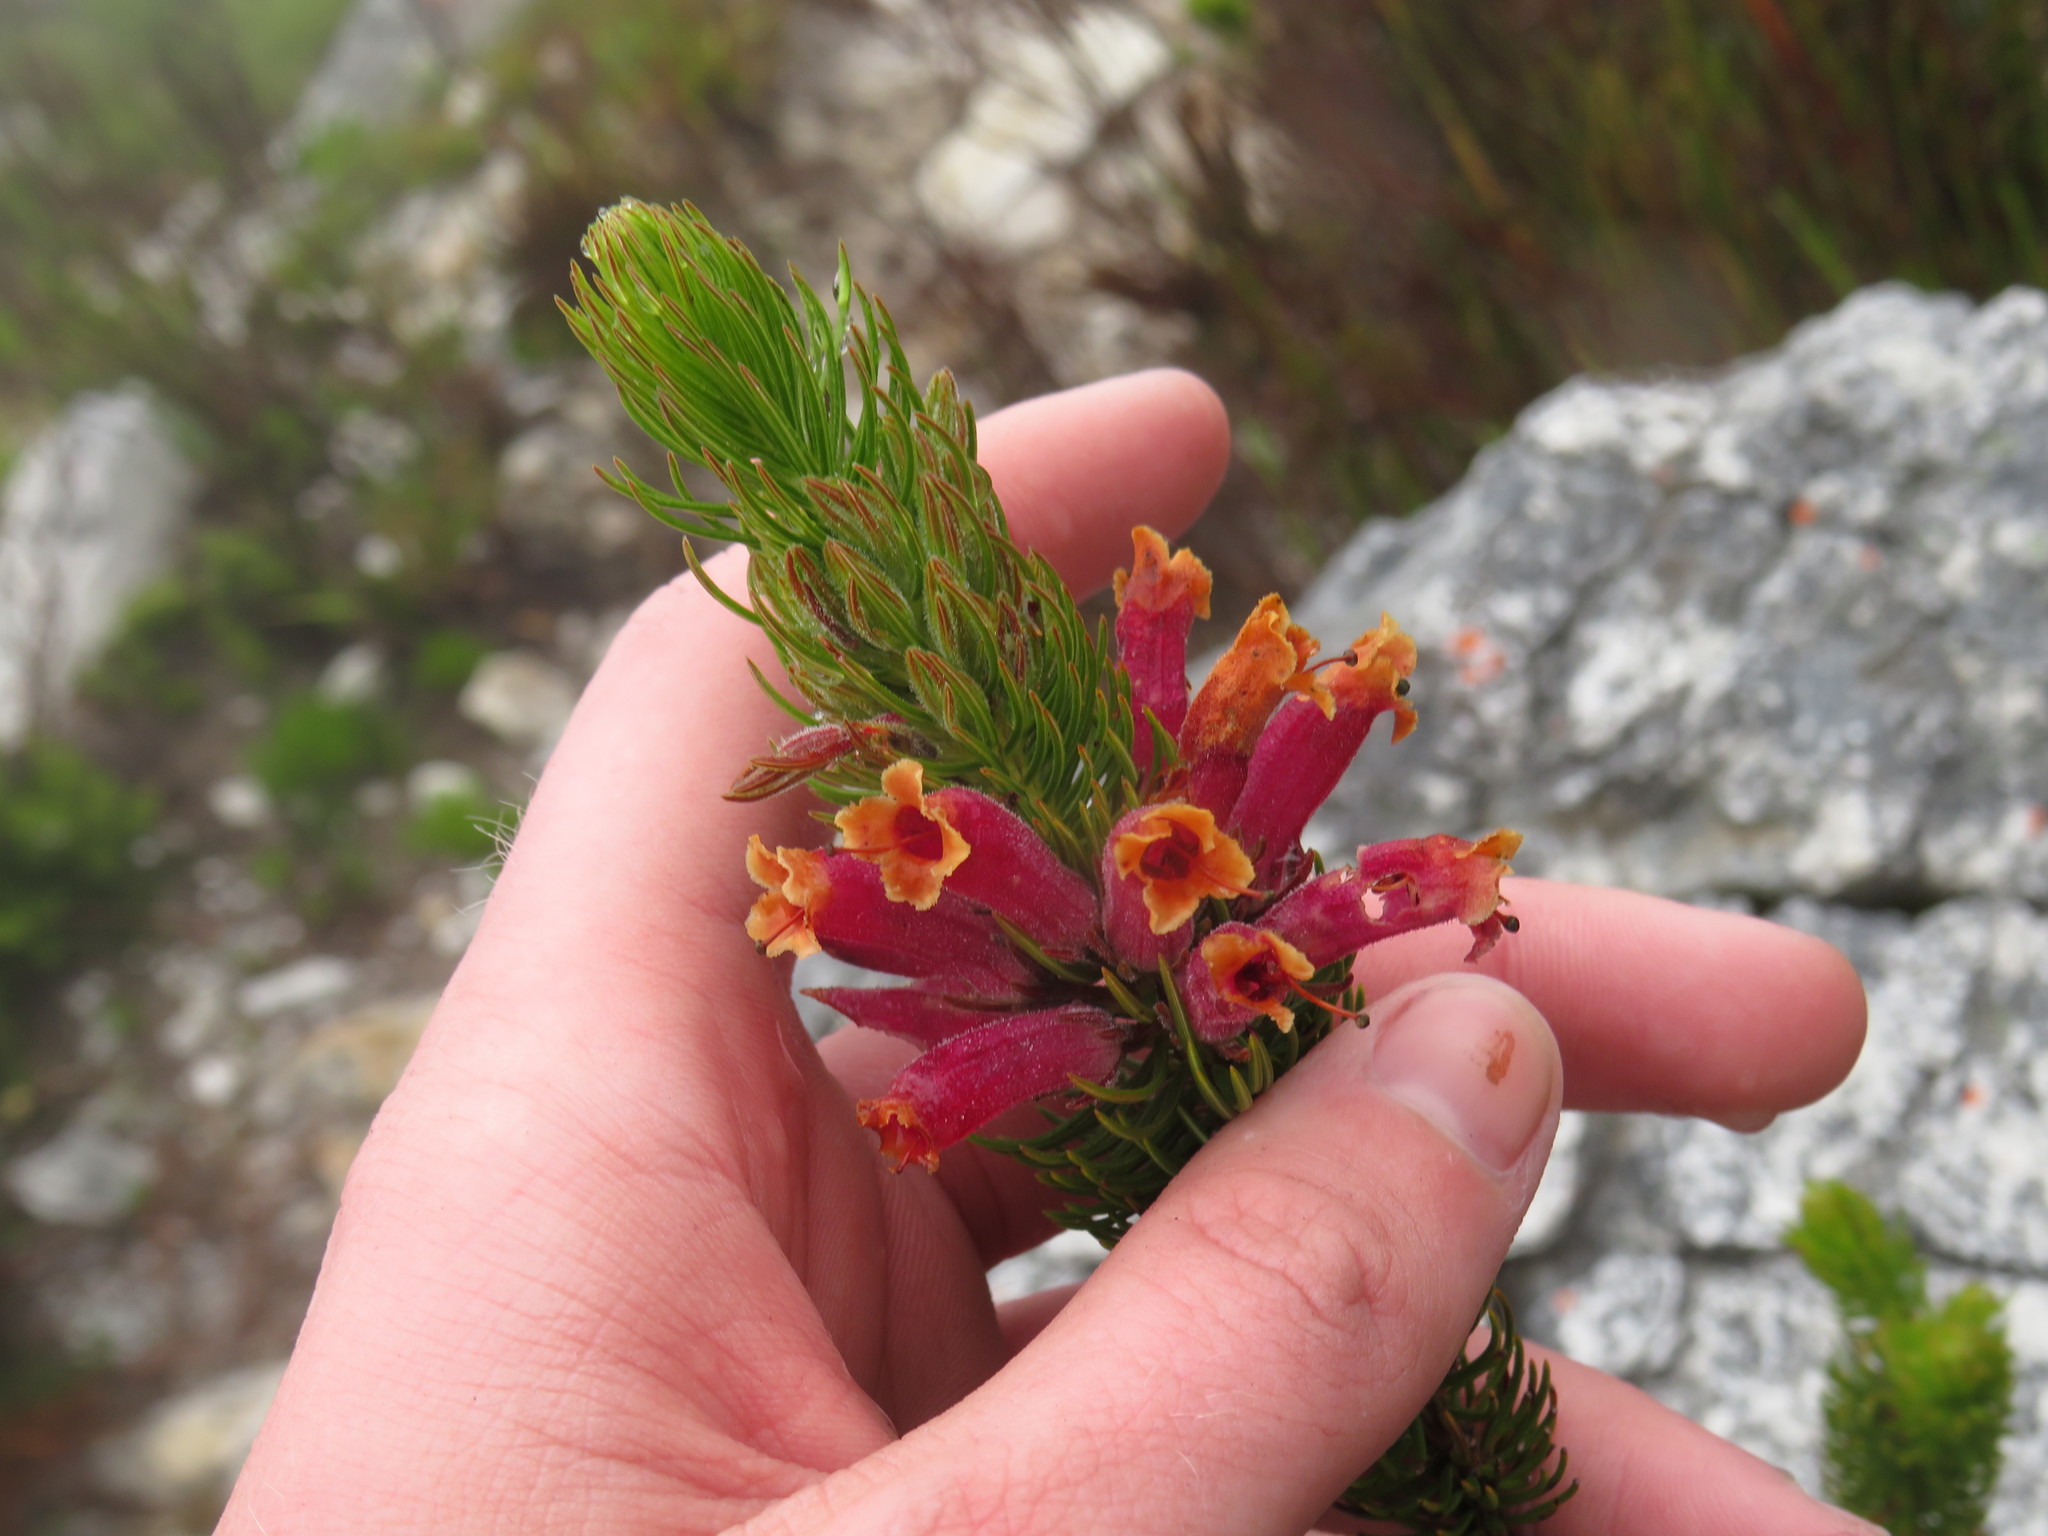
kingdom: Plantae
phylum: Tracheophyta
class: Magnoliopsida
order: Ericales
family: Ericaceae
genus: Erica
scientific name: Erica viscaria
